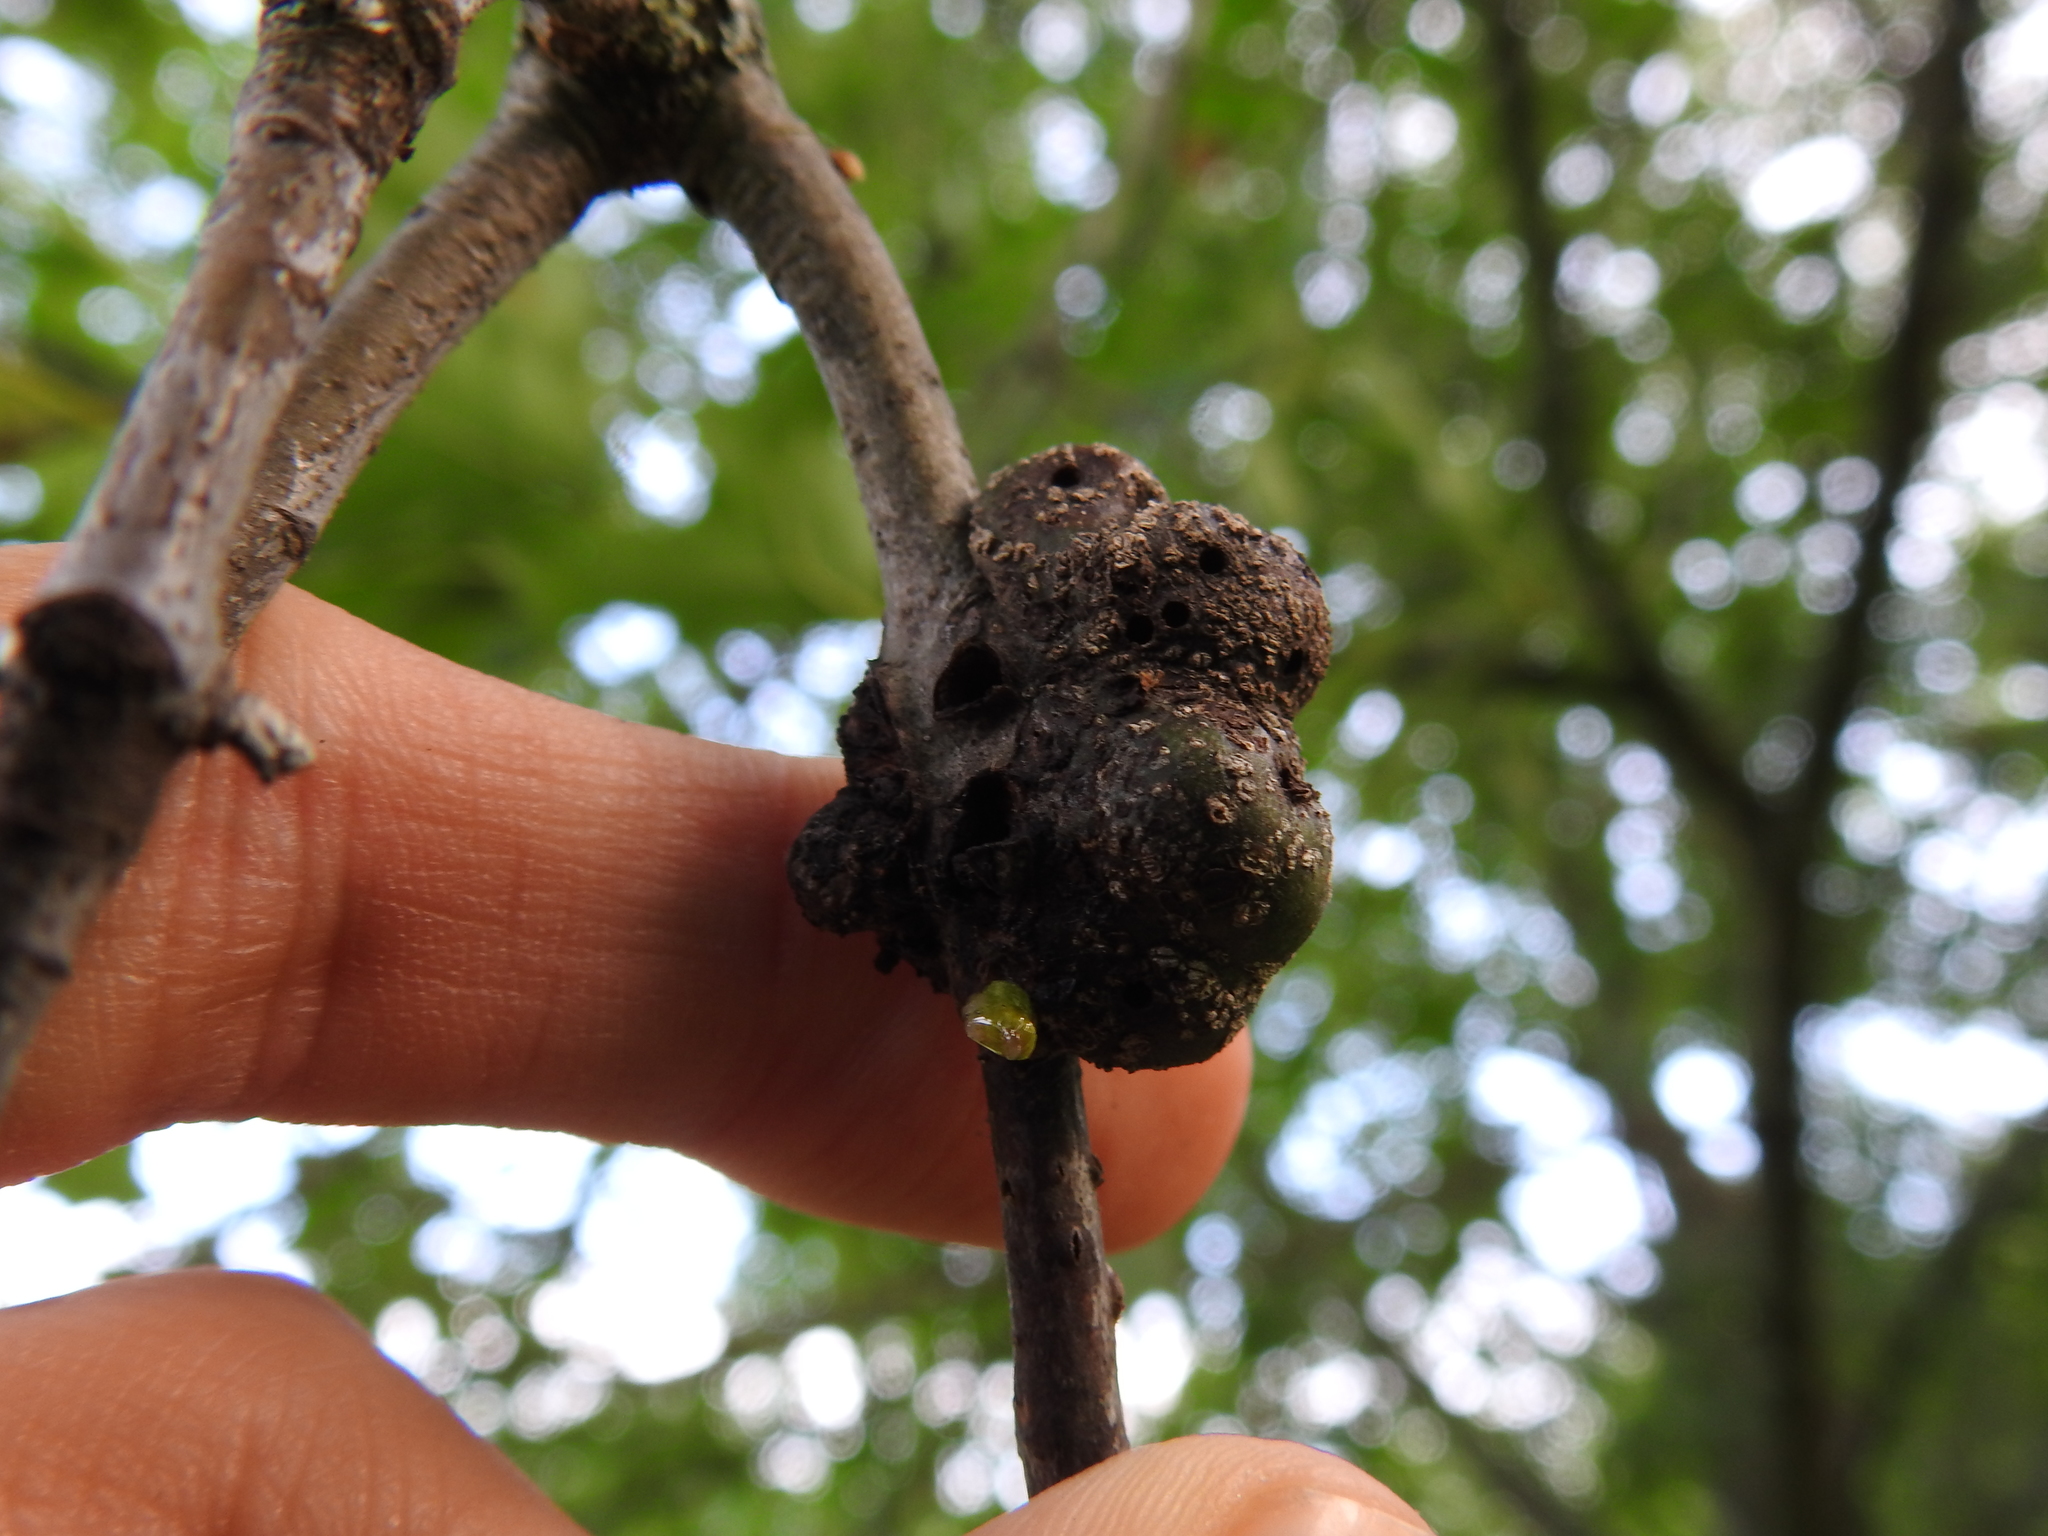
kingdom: Animalia
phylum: Arthropoda
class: Insecta
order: Hymenoptera
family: Cynipidae
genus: Callirhytis
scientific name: Callirhytis
